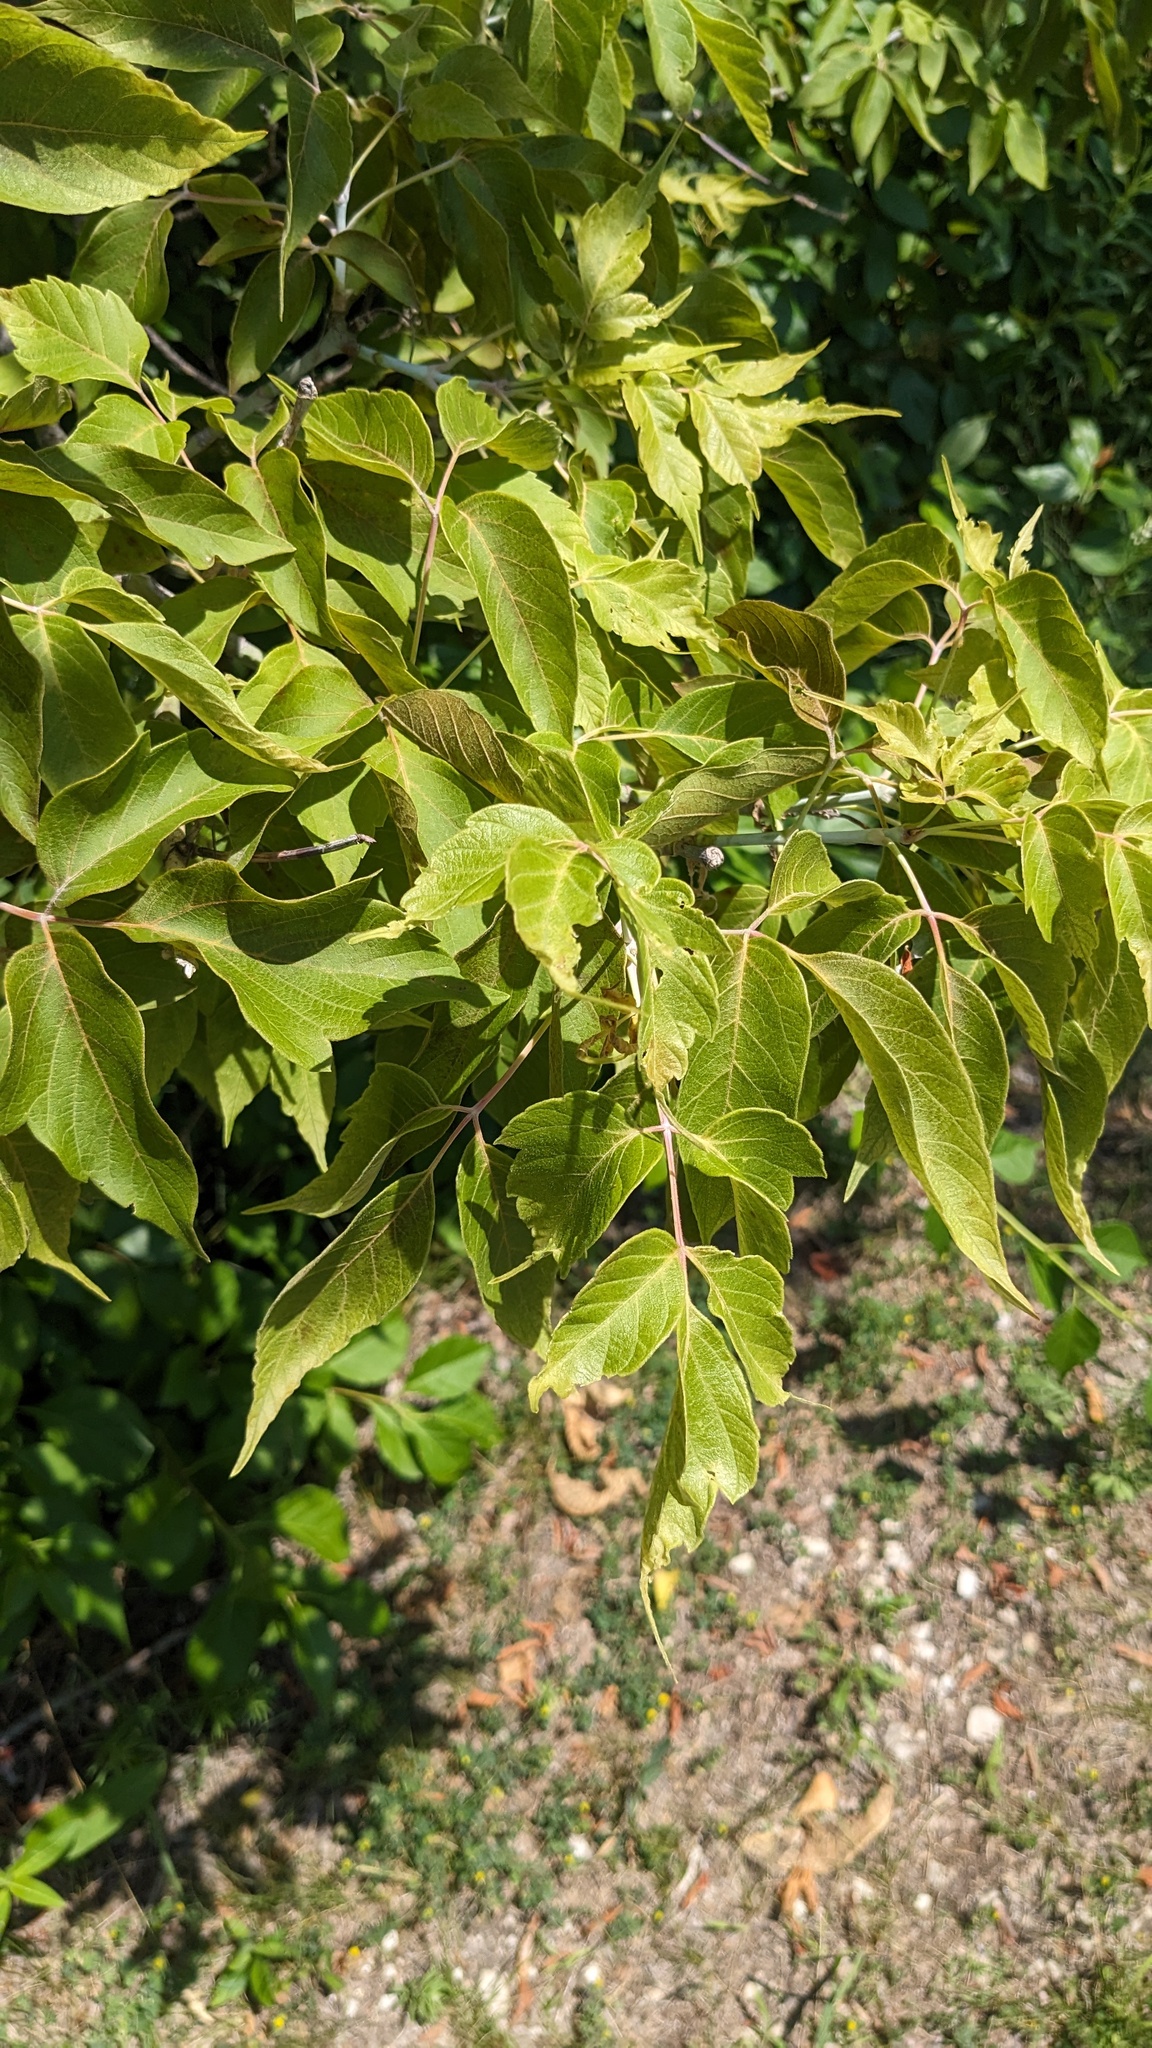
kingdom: Plantae
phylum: Tracheophyta
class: Magnoliopsida
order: Sapindales
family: Sapindaceae
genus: Acer
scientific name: Acer negundo
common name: Ashleaf maple
